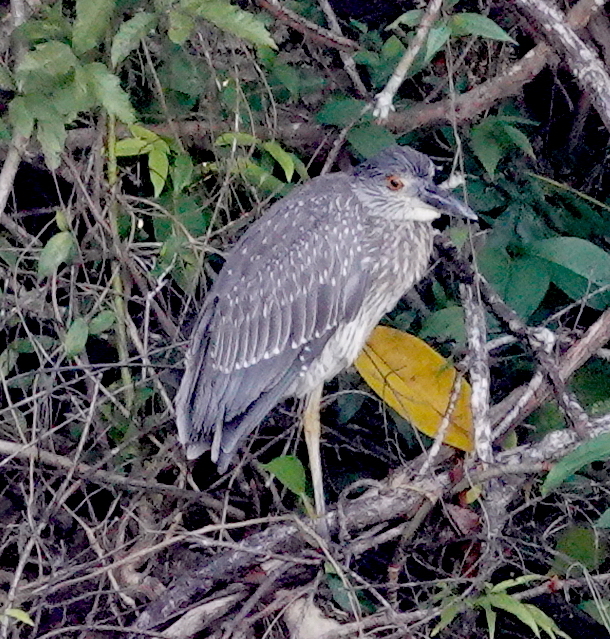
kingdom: Animalia
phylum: Chordata
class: Aves
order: Pelecaniformes
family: Ardeidae
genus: Nyctanassa
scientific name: Nyctanassa violacea
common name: Yellow-crowned night heron
